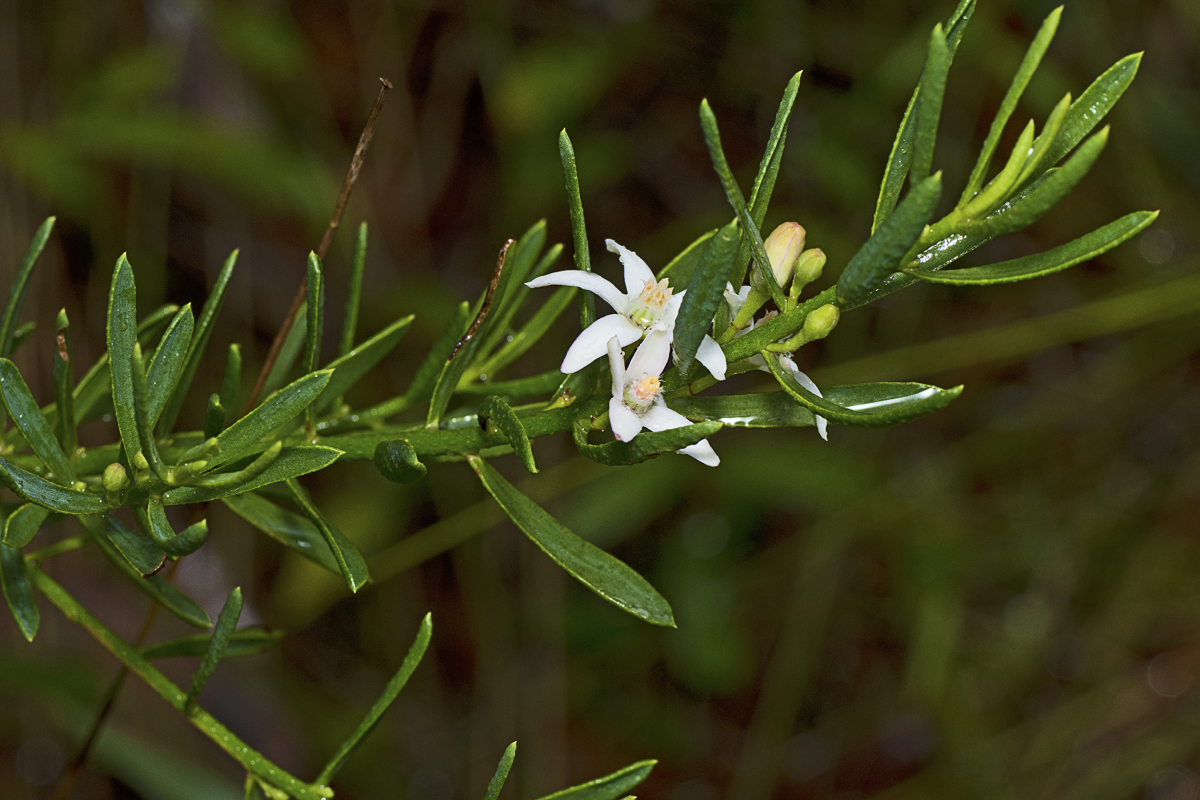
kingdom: Plantae
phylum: Tracheophyta
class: Magnoliopsida
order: Sapindales
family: Rutaceae
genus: Philotheca
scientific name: Philotheca queenslandica
